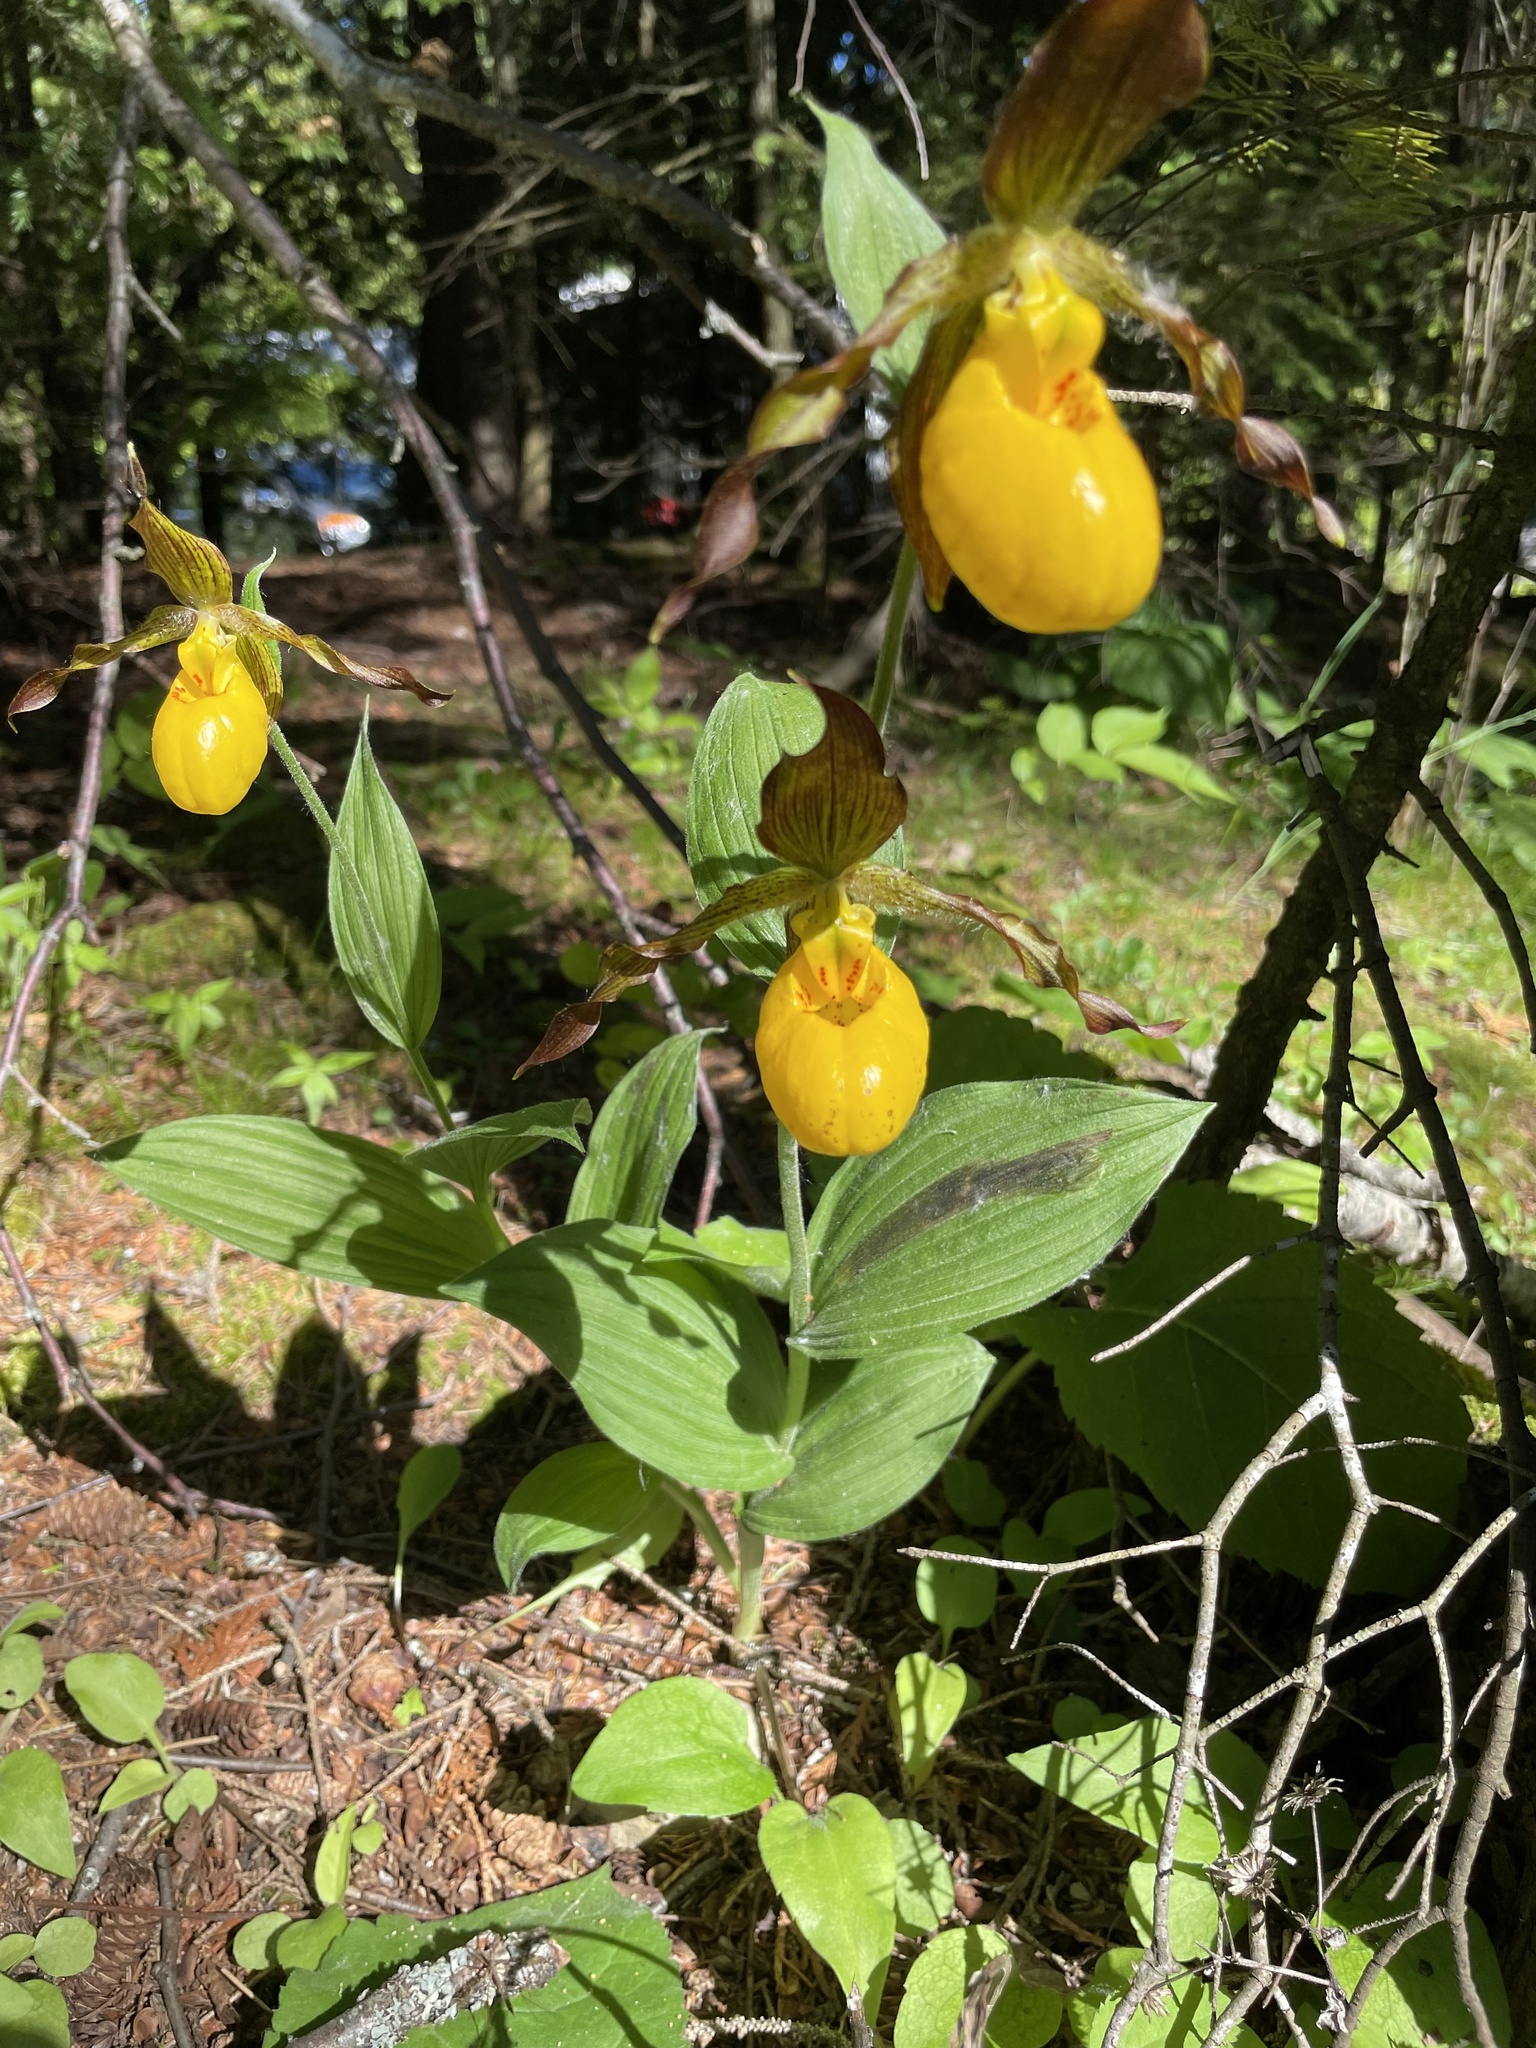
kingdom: Plantae
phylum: Tracheophyta
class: Liliopsida
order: Asparagales
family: Orchidaceae
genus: Cypripedium
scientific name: Cypripedium parviflorum
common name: American yellow lady's-slipper
